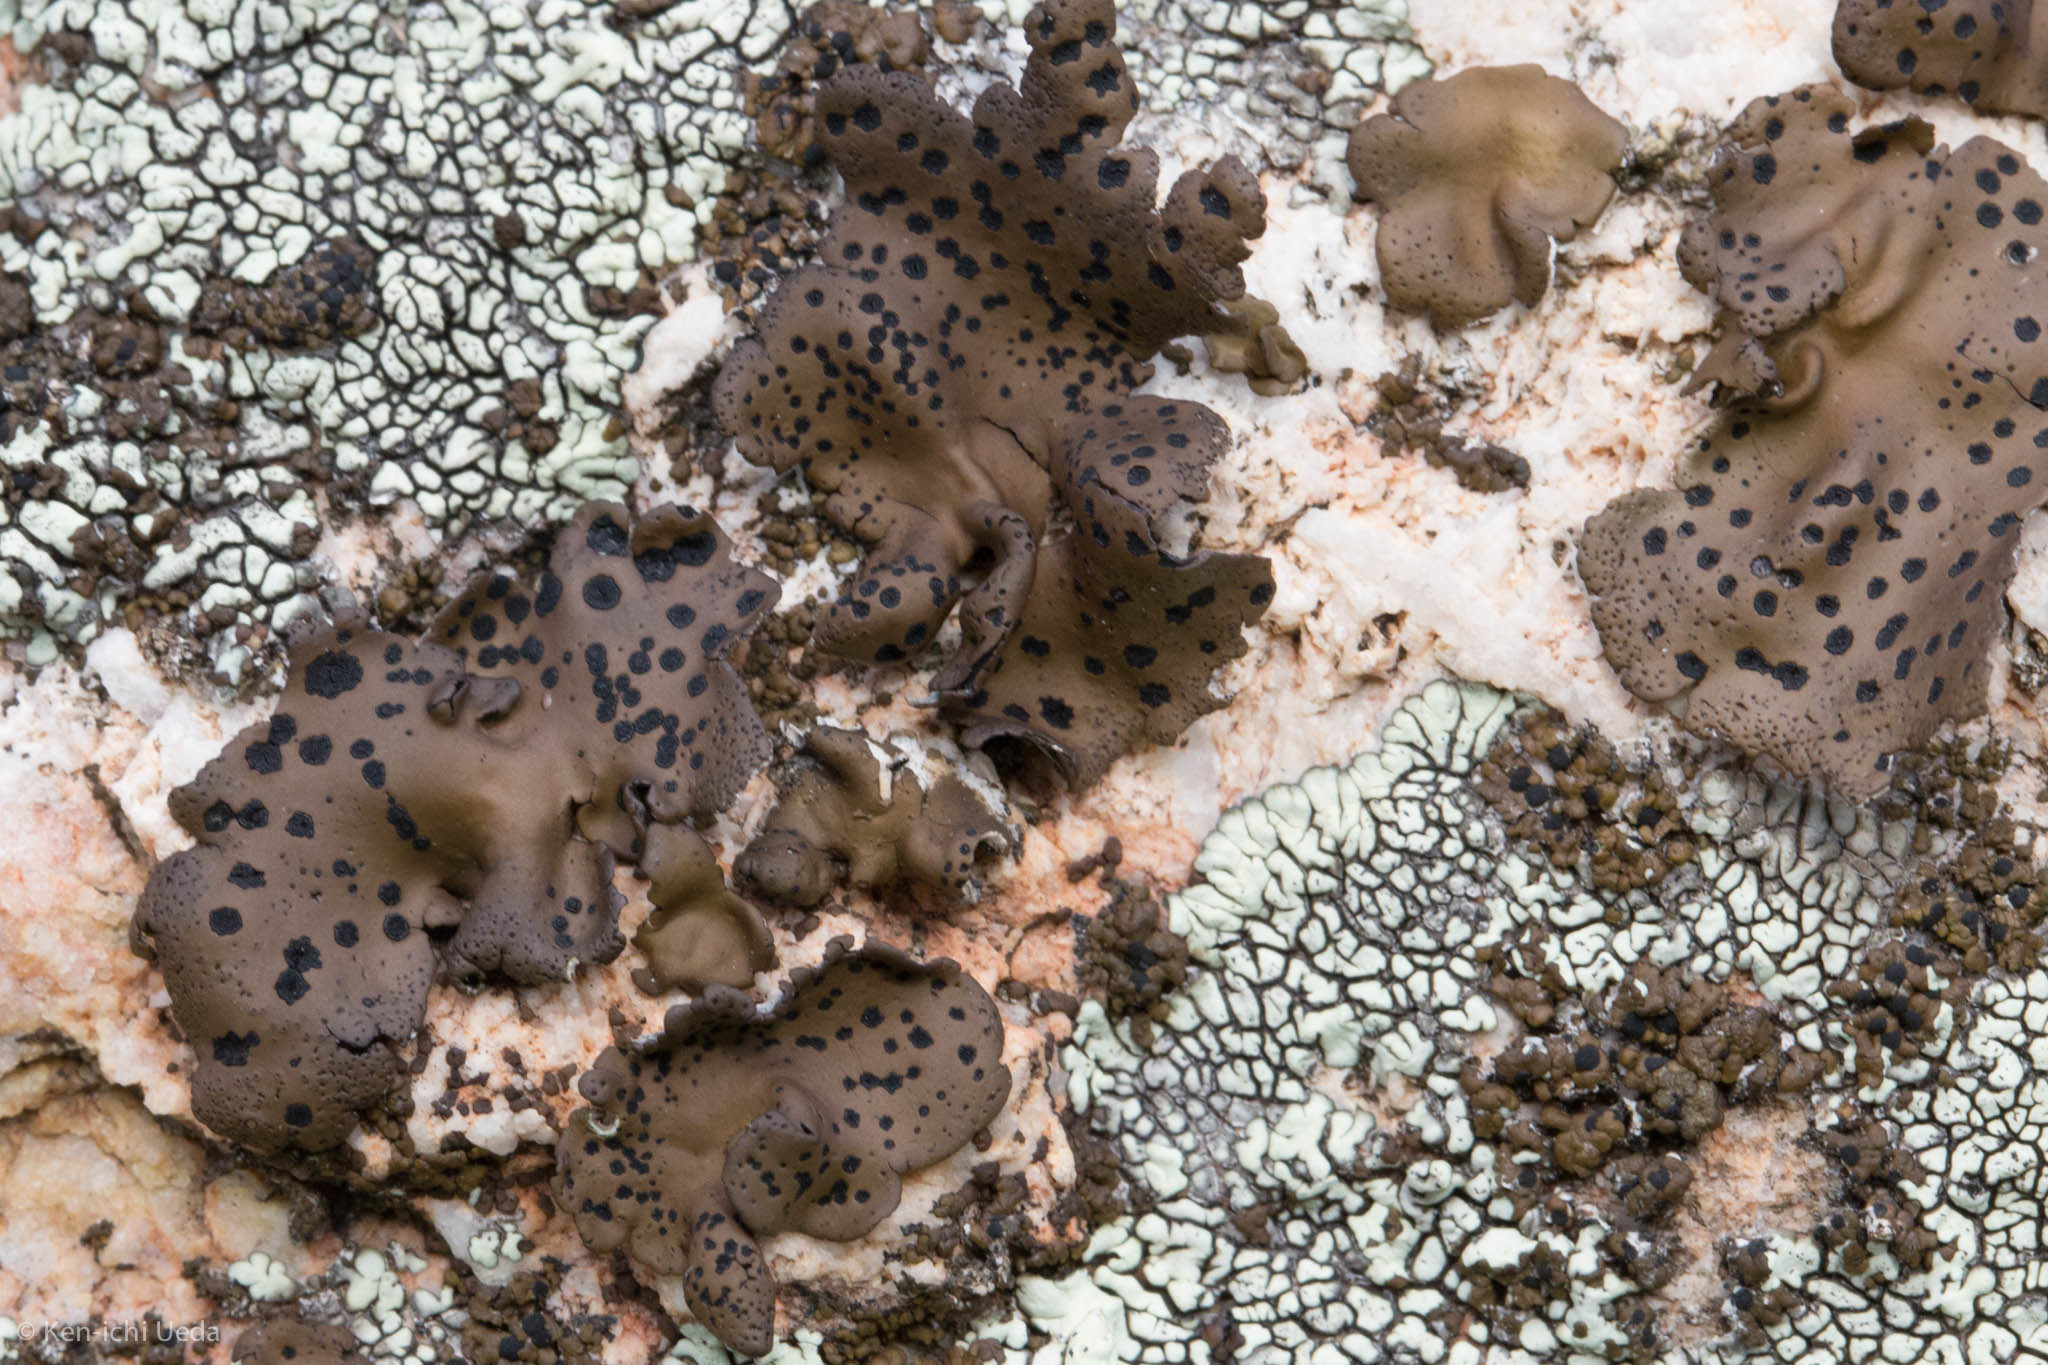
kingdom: Fungi
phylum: Ascomycota
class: Lecanoromycetes
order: Umbilicariales
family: Umbilicariaceae
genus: Umbilicaria
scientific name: Umbilicaria phaea
